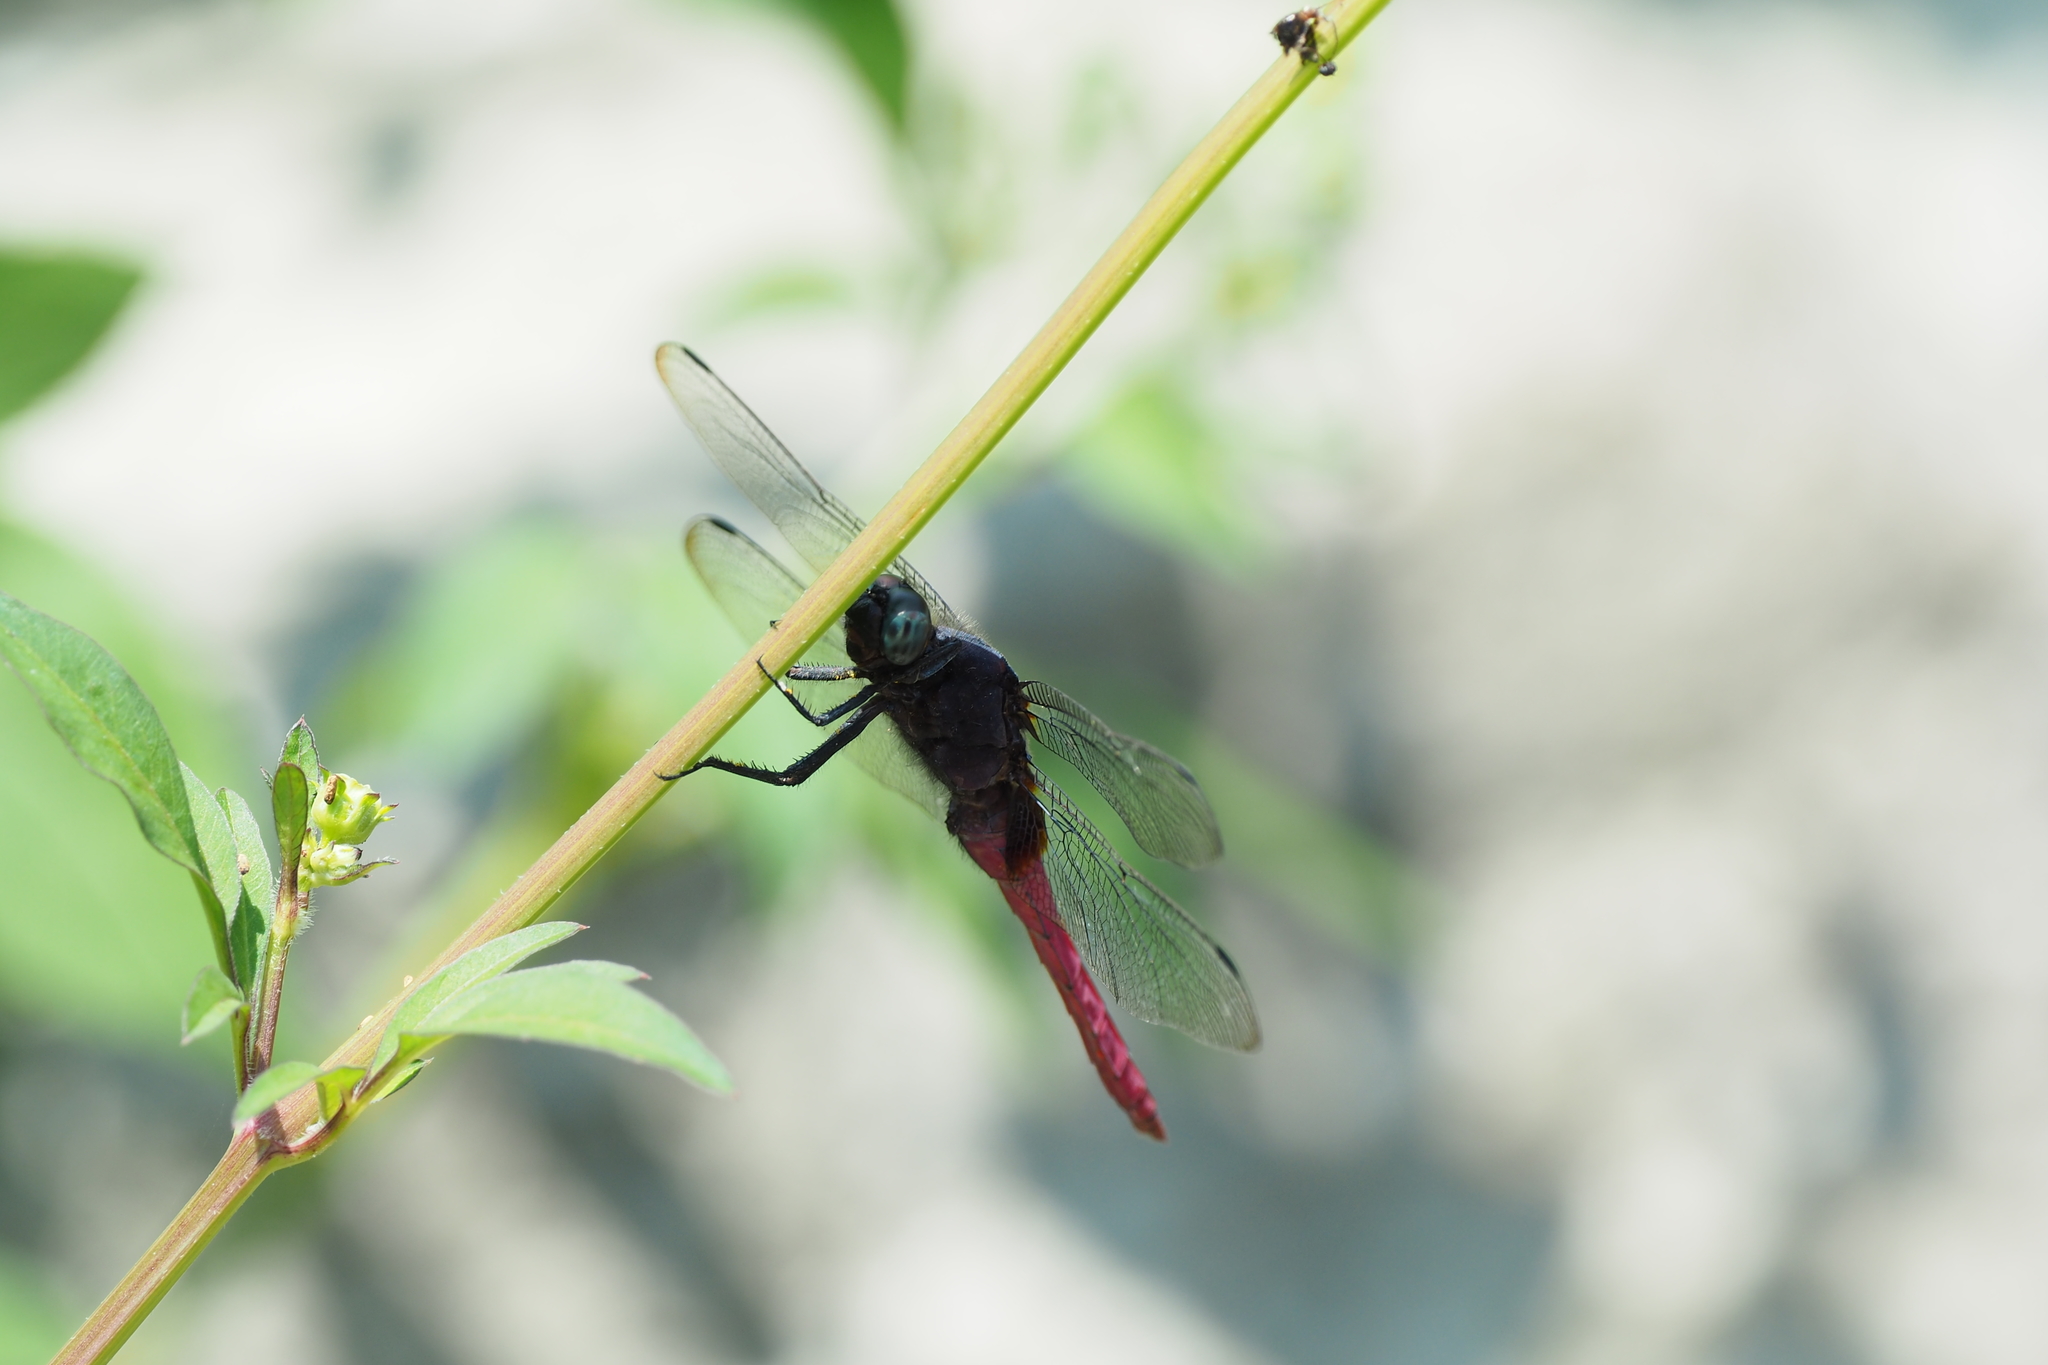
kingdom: Animalia
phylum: Arthropoda
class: Insecta
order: Odonata
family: Libellulidae
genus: Orthetrum
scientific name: Orthetrum pruinosum
